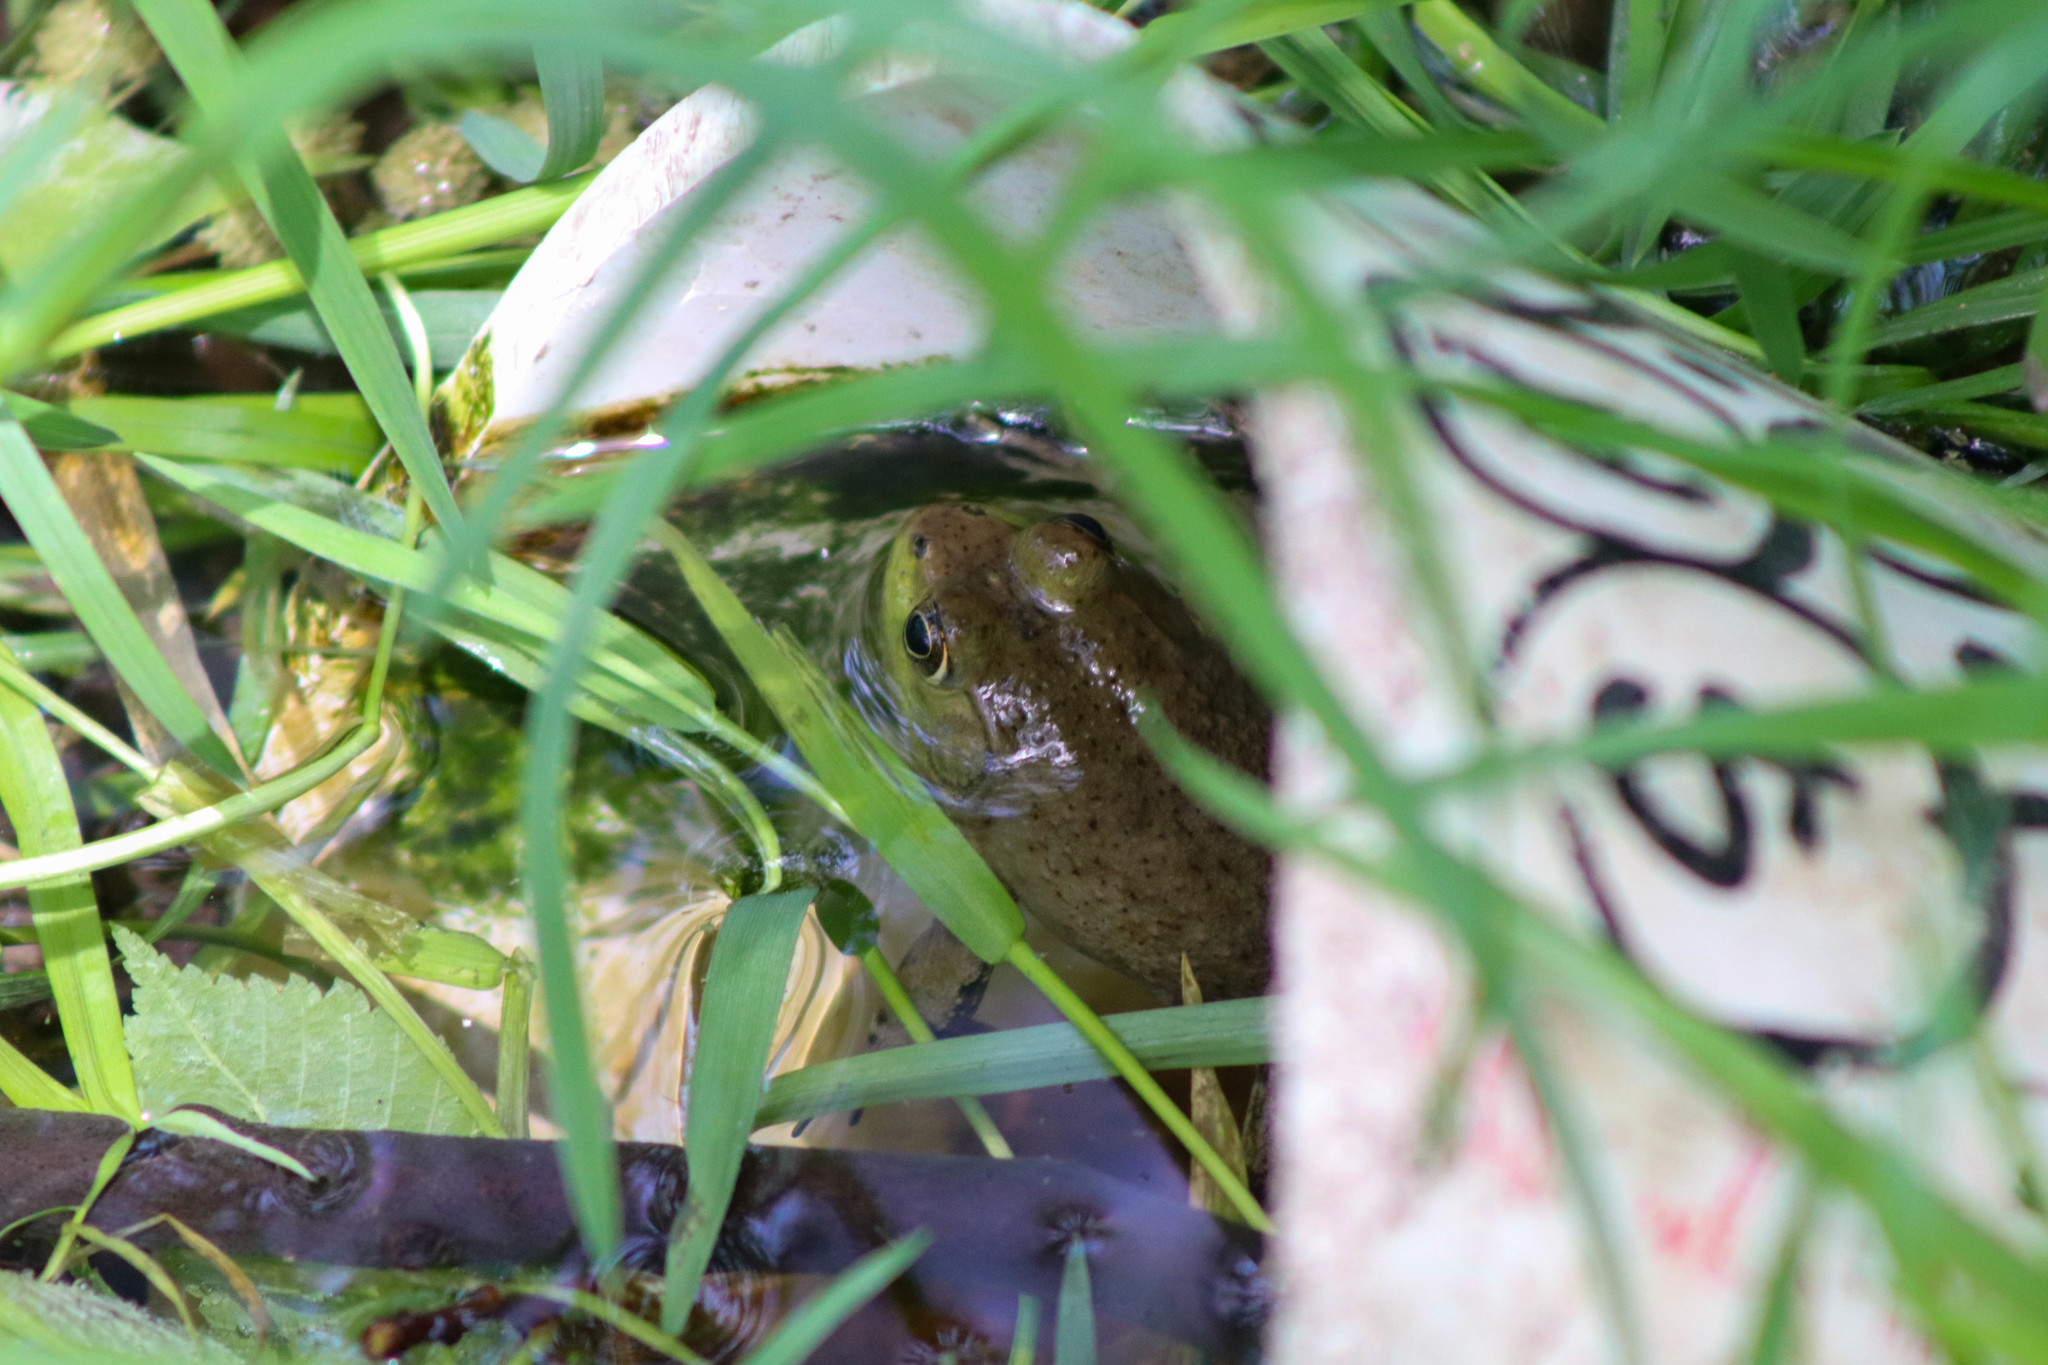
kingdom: Animalia
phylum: Chordata
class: Amphibia
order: Anura
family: Ranidae
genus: Lithobates
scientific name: Lithobates catesbeianus
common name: American bullfrog
